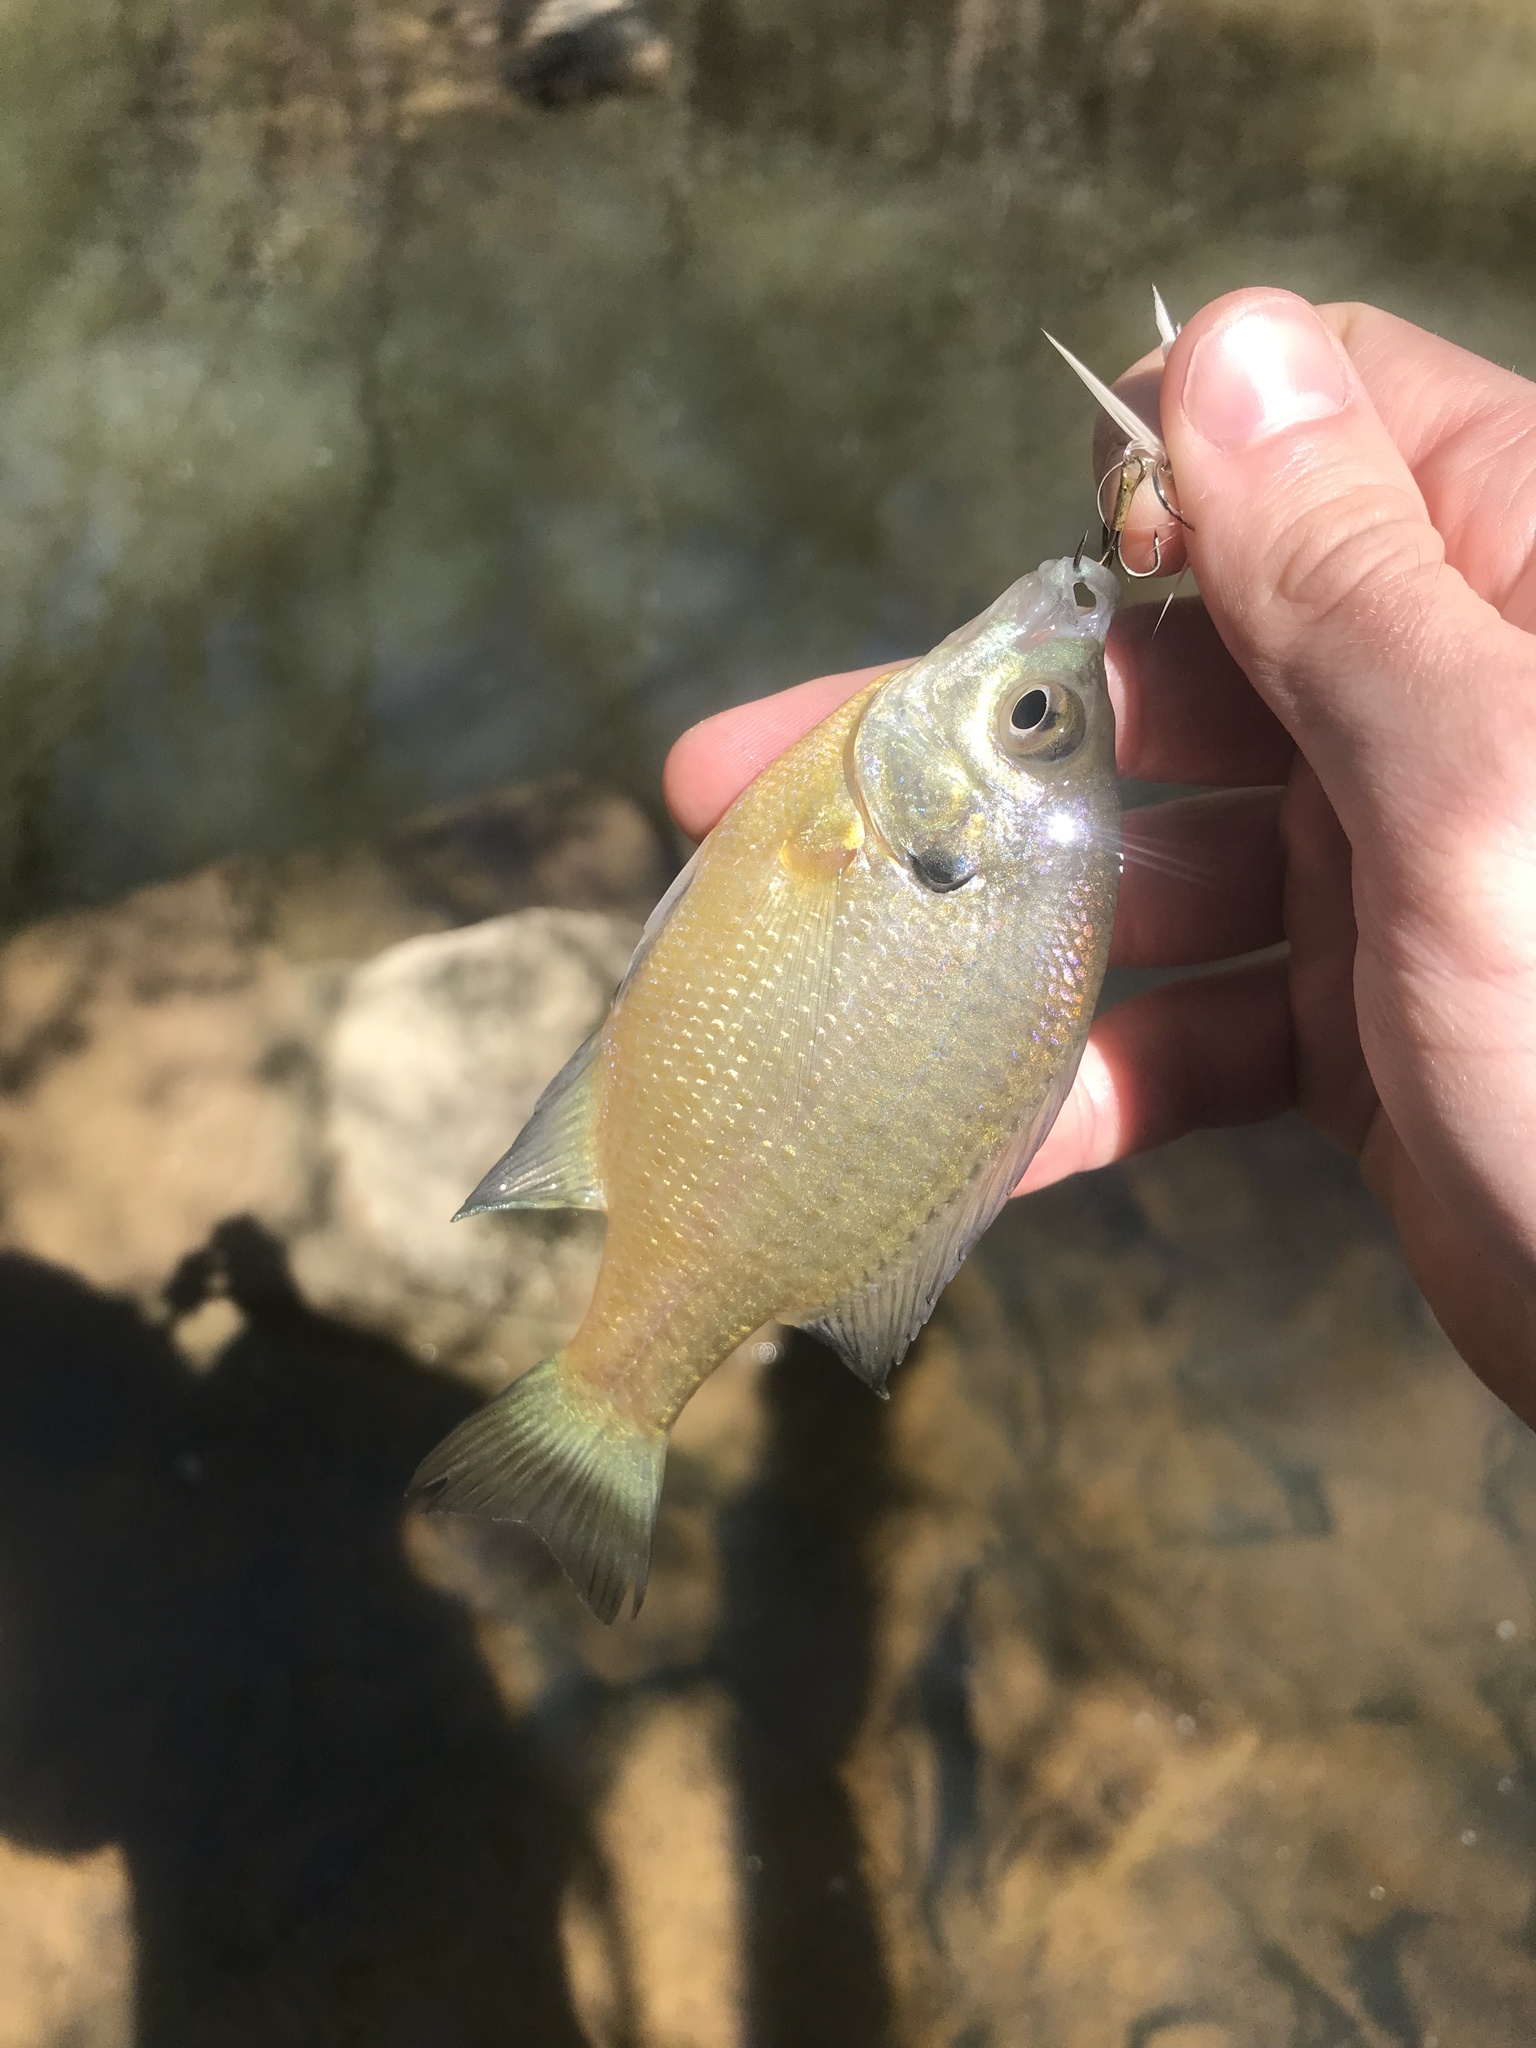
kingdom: Animalia
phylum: Chordata
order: Perciformes
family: Centrarchidae
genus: Lepomis
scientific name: Lepomis macrochirus
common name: Bluegill
